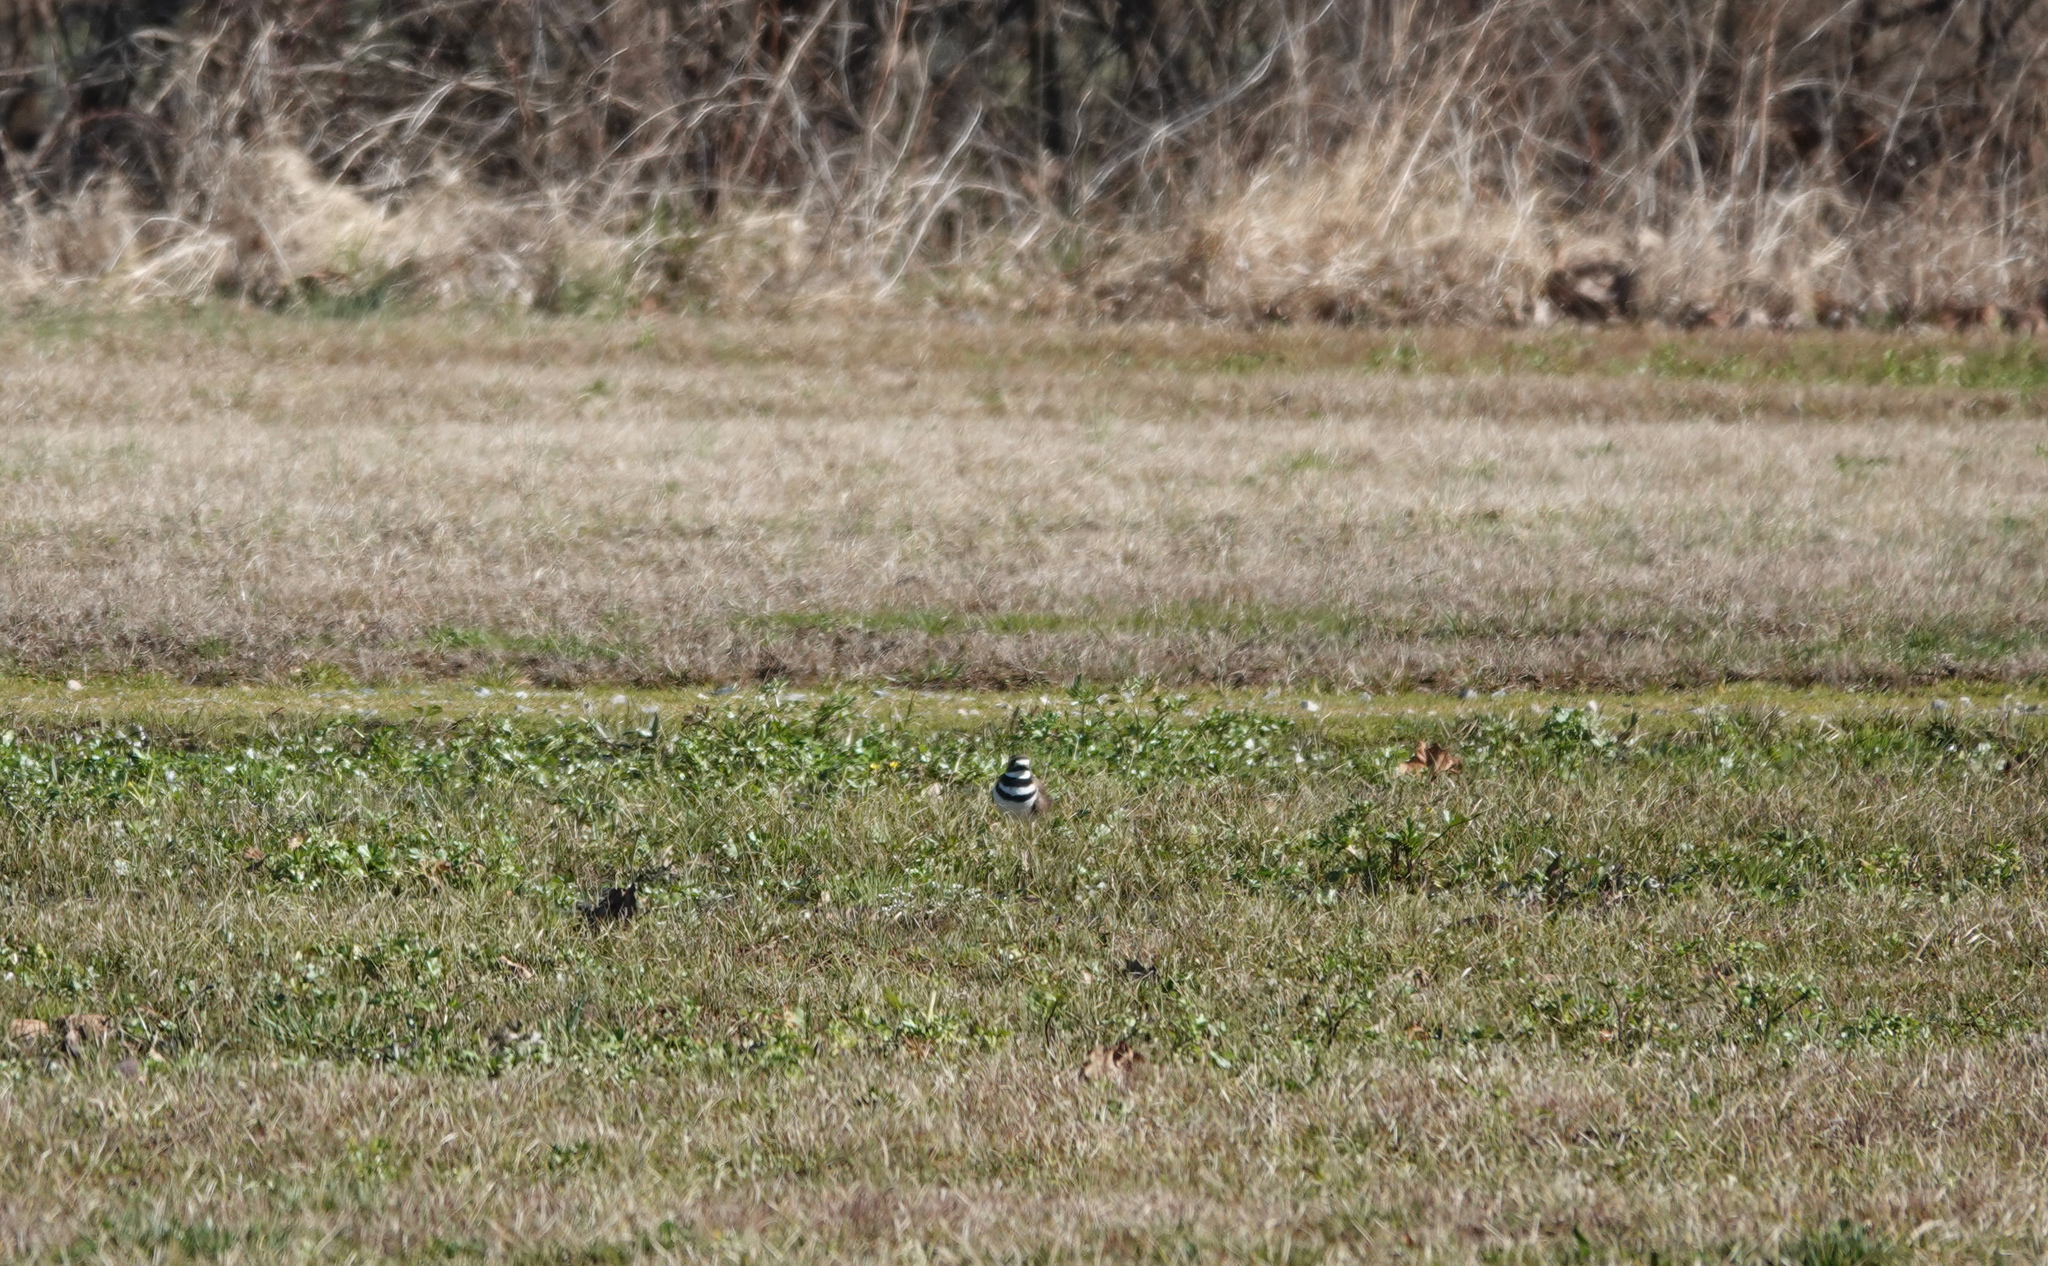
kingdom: Animalia
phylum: Chordata
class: Aves
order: Charadriiformes
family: Charadriidae
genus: Charadrius
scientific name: Charadrius vociferus
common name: Killdeer
